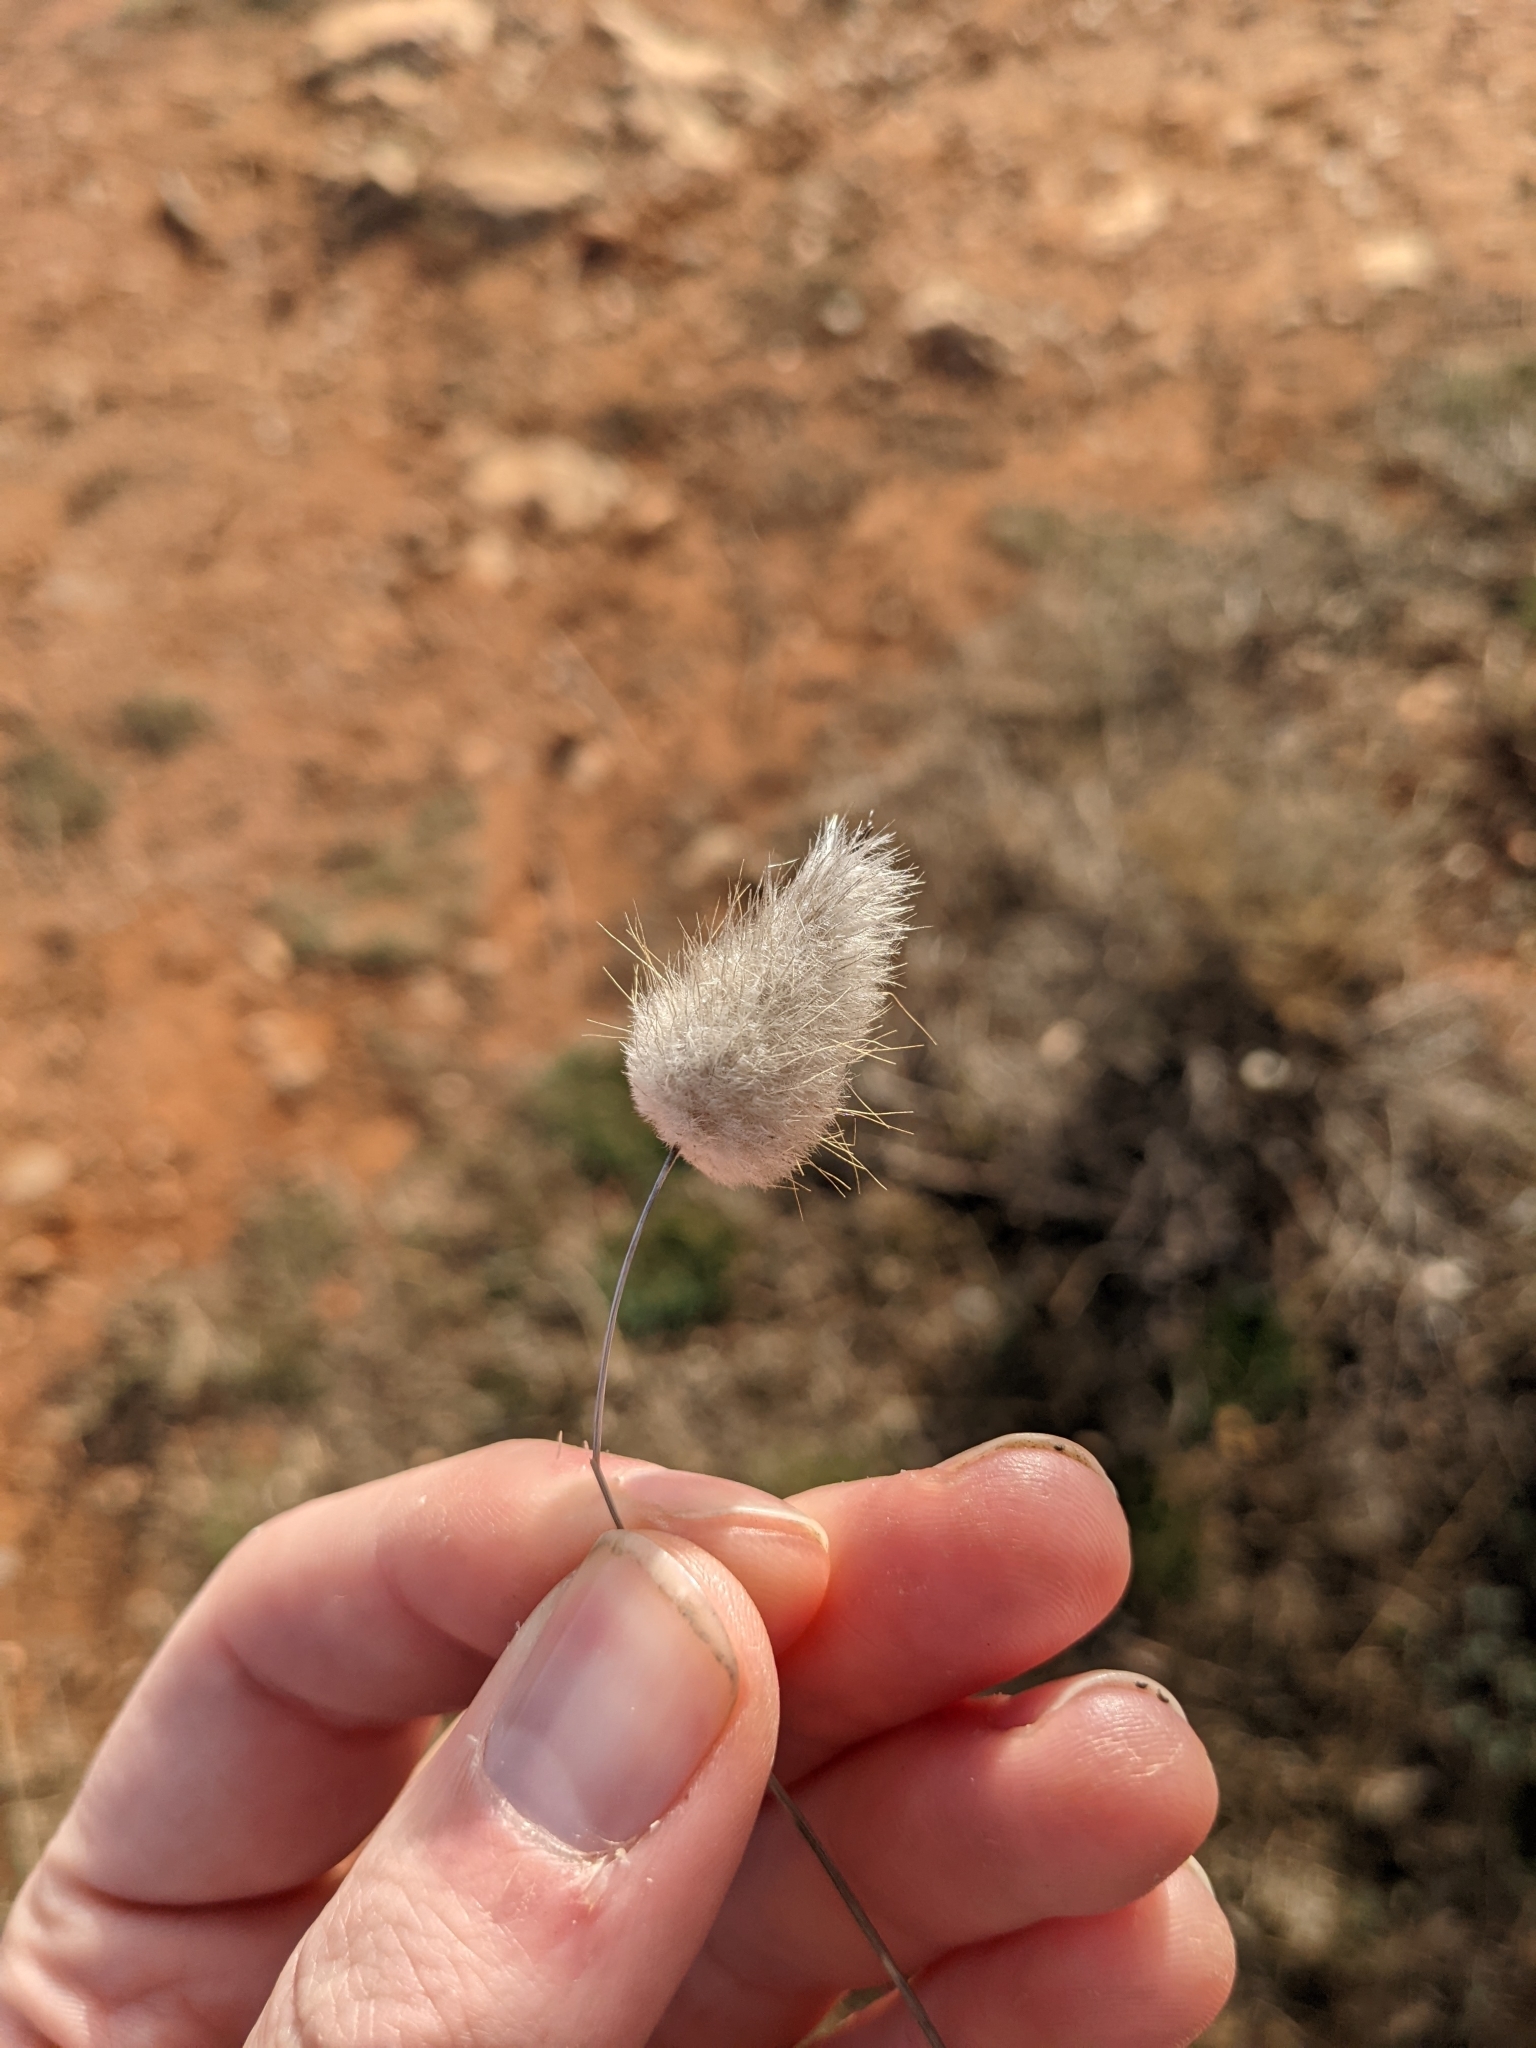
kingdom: Plantae
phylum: Tracheophyta
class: Liliopsida
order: Poales
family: Poaceae
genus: Lagurus
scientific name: Lagurus ovatus
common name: Hare's-tail
